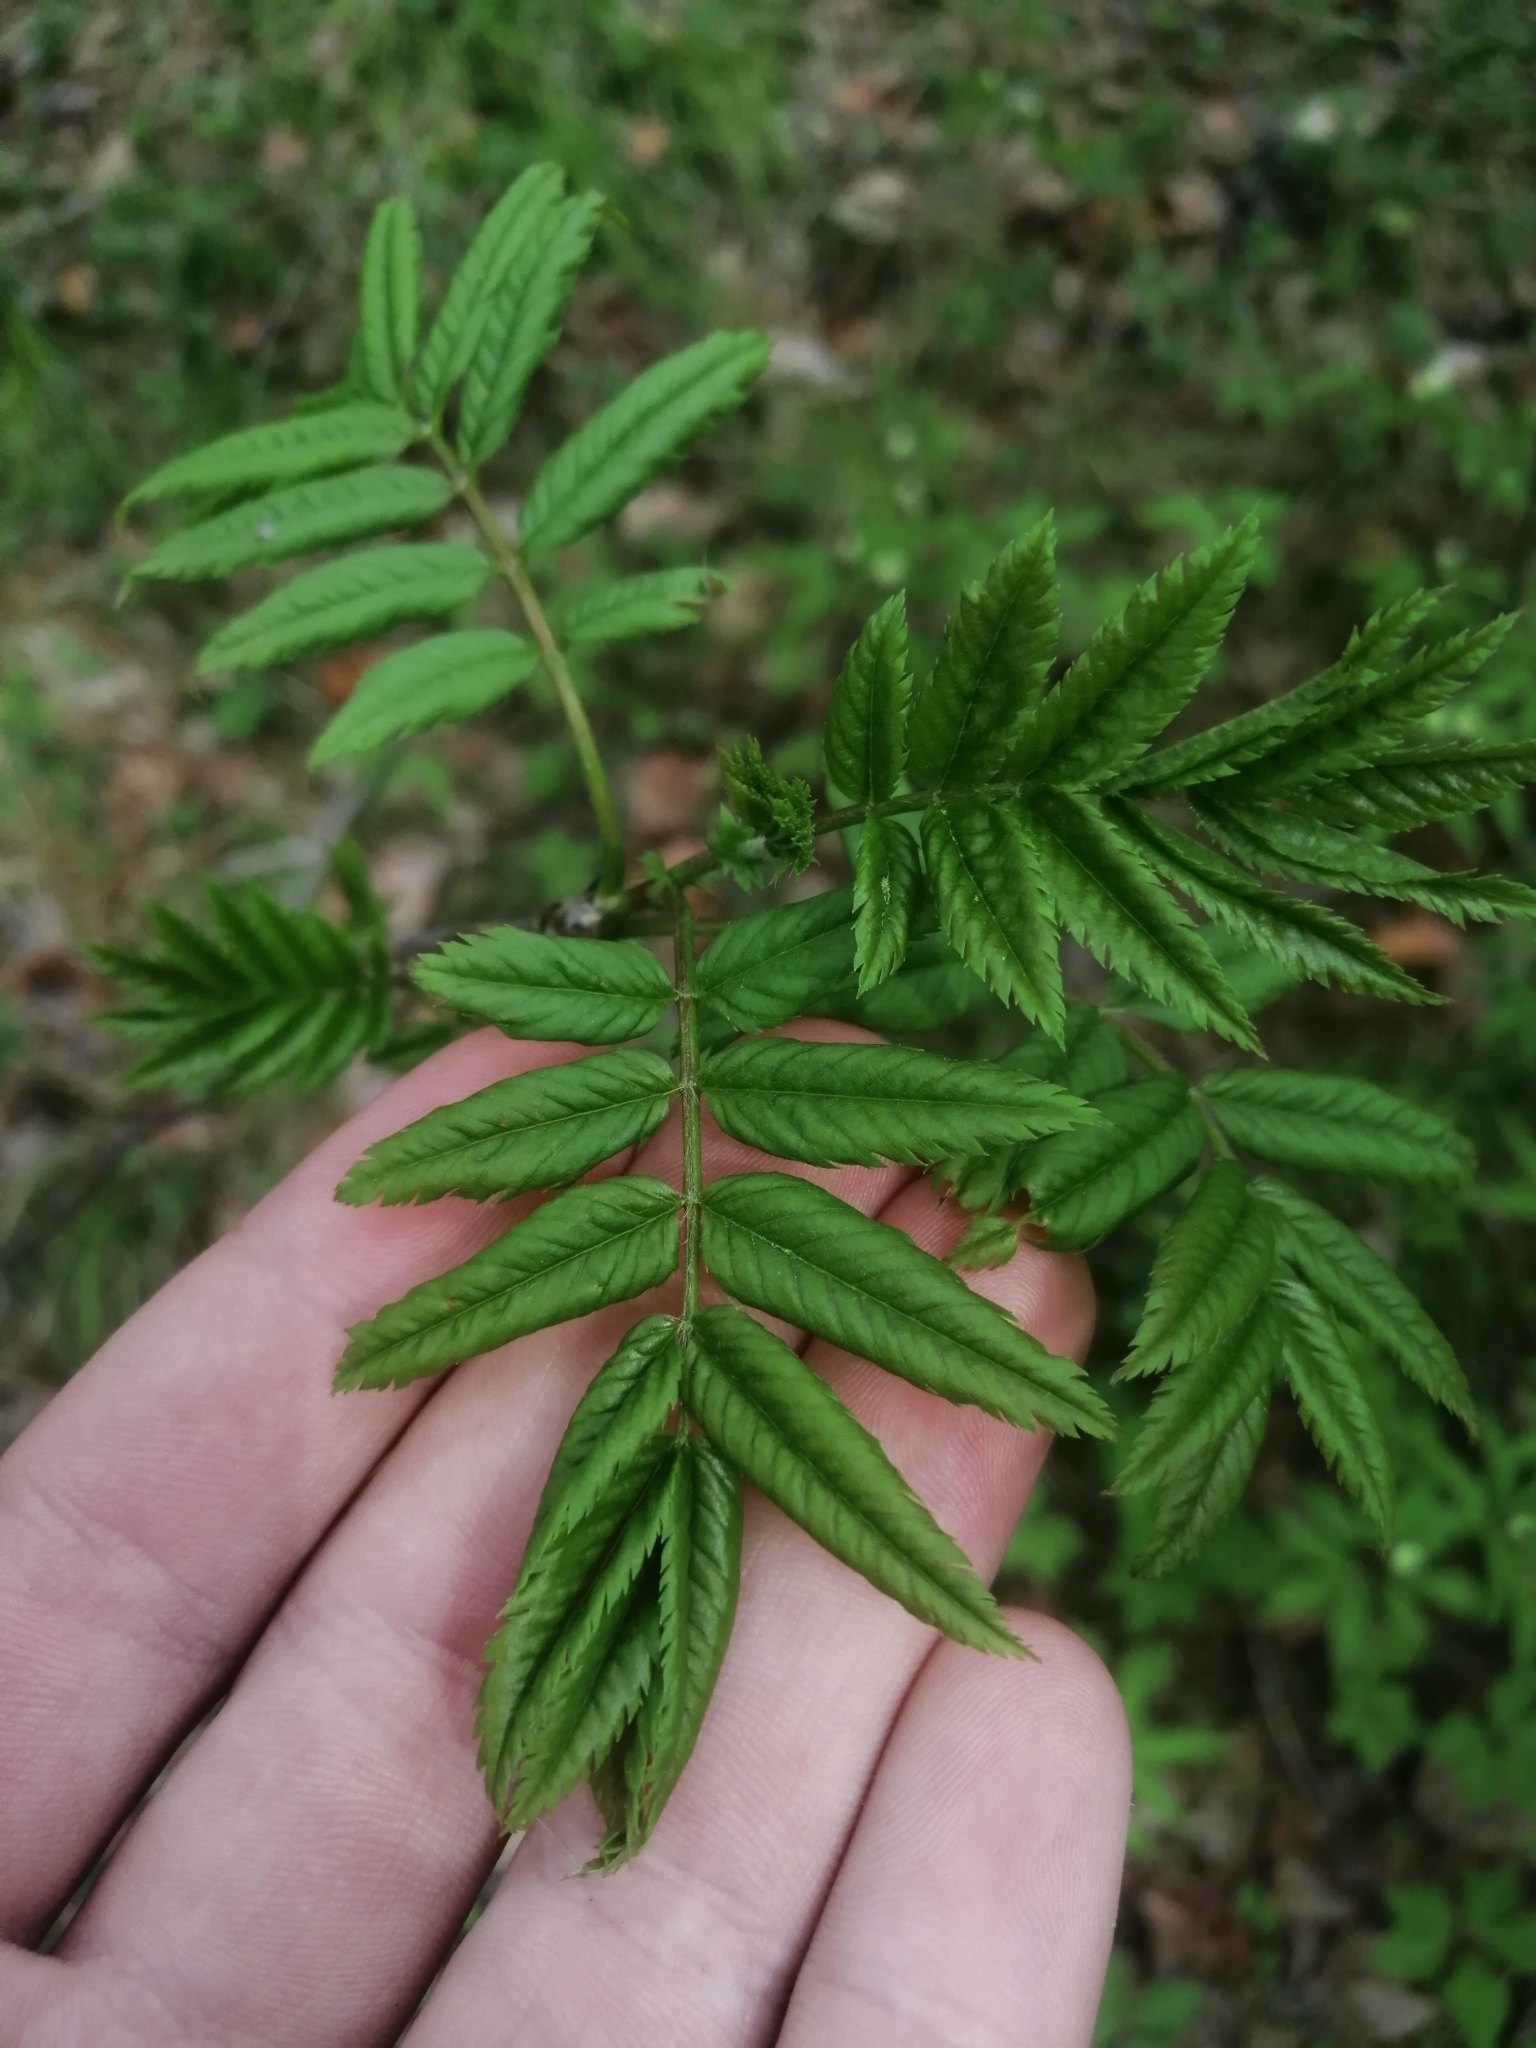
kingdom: Plantae
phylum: Tracheophyta
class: Magnoliopsida
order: Rosales
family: Rosaceae
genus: Sorbus
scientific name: Sorbus aucuparia
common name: Rowan
